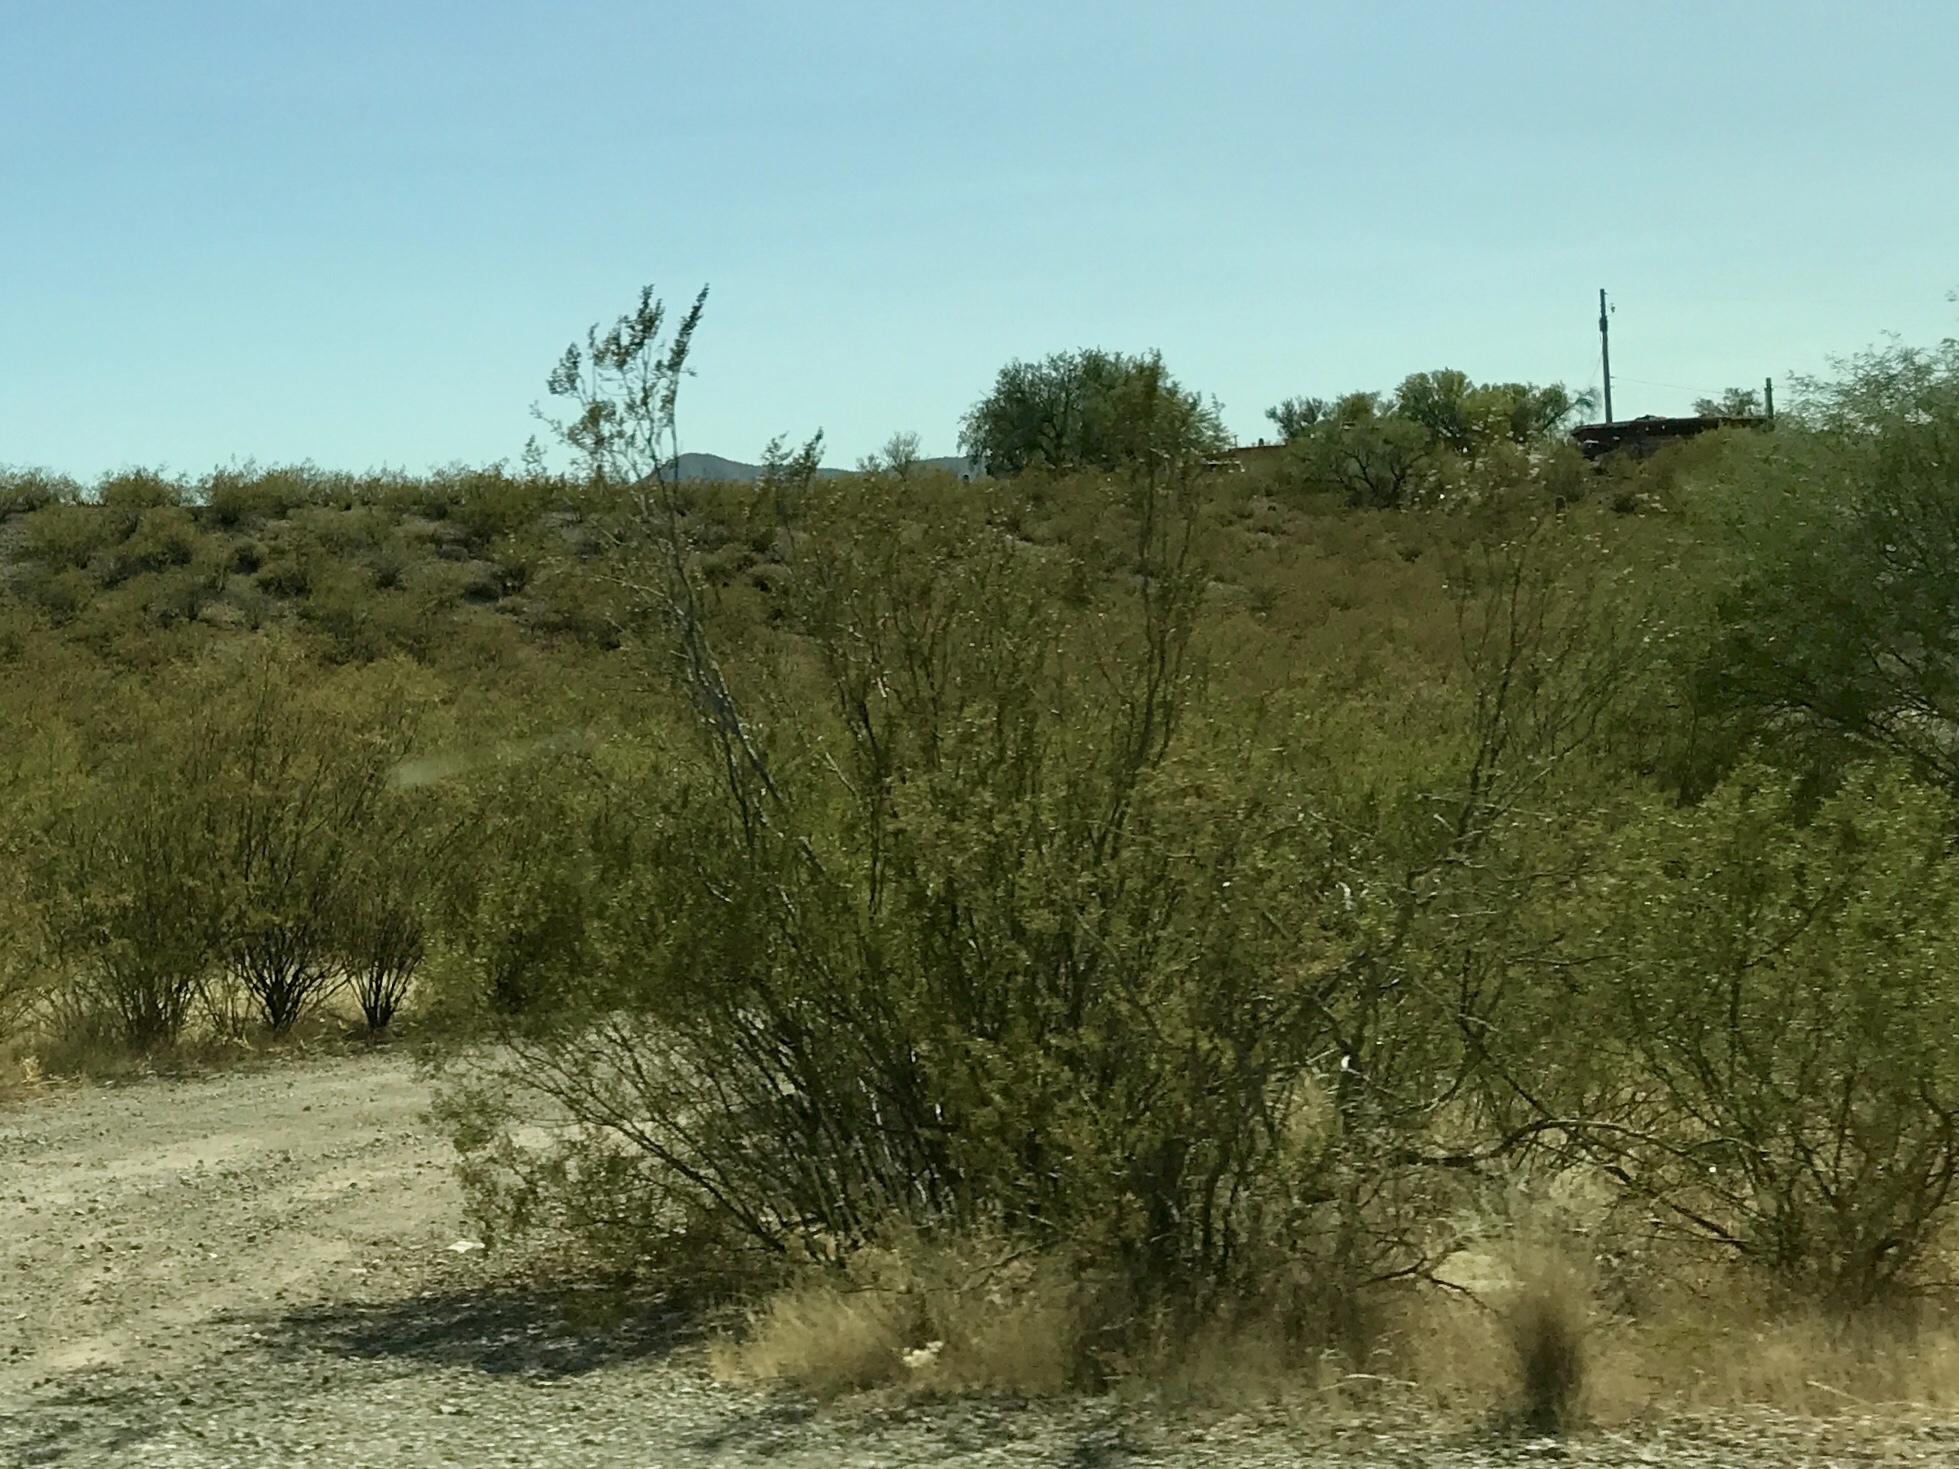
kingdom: Plantae
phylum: Tracheophyta
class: Magnoliopsida
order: Zygophyllales
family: Zygophyllaceae
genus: Larrea
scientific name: Larrea tridentata
